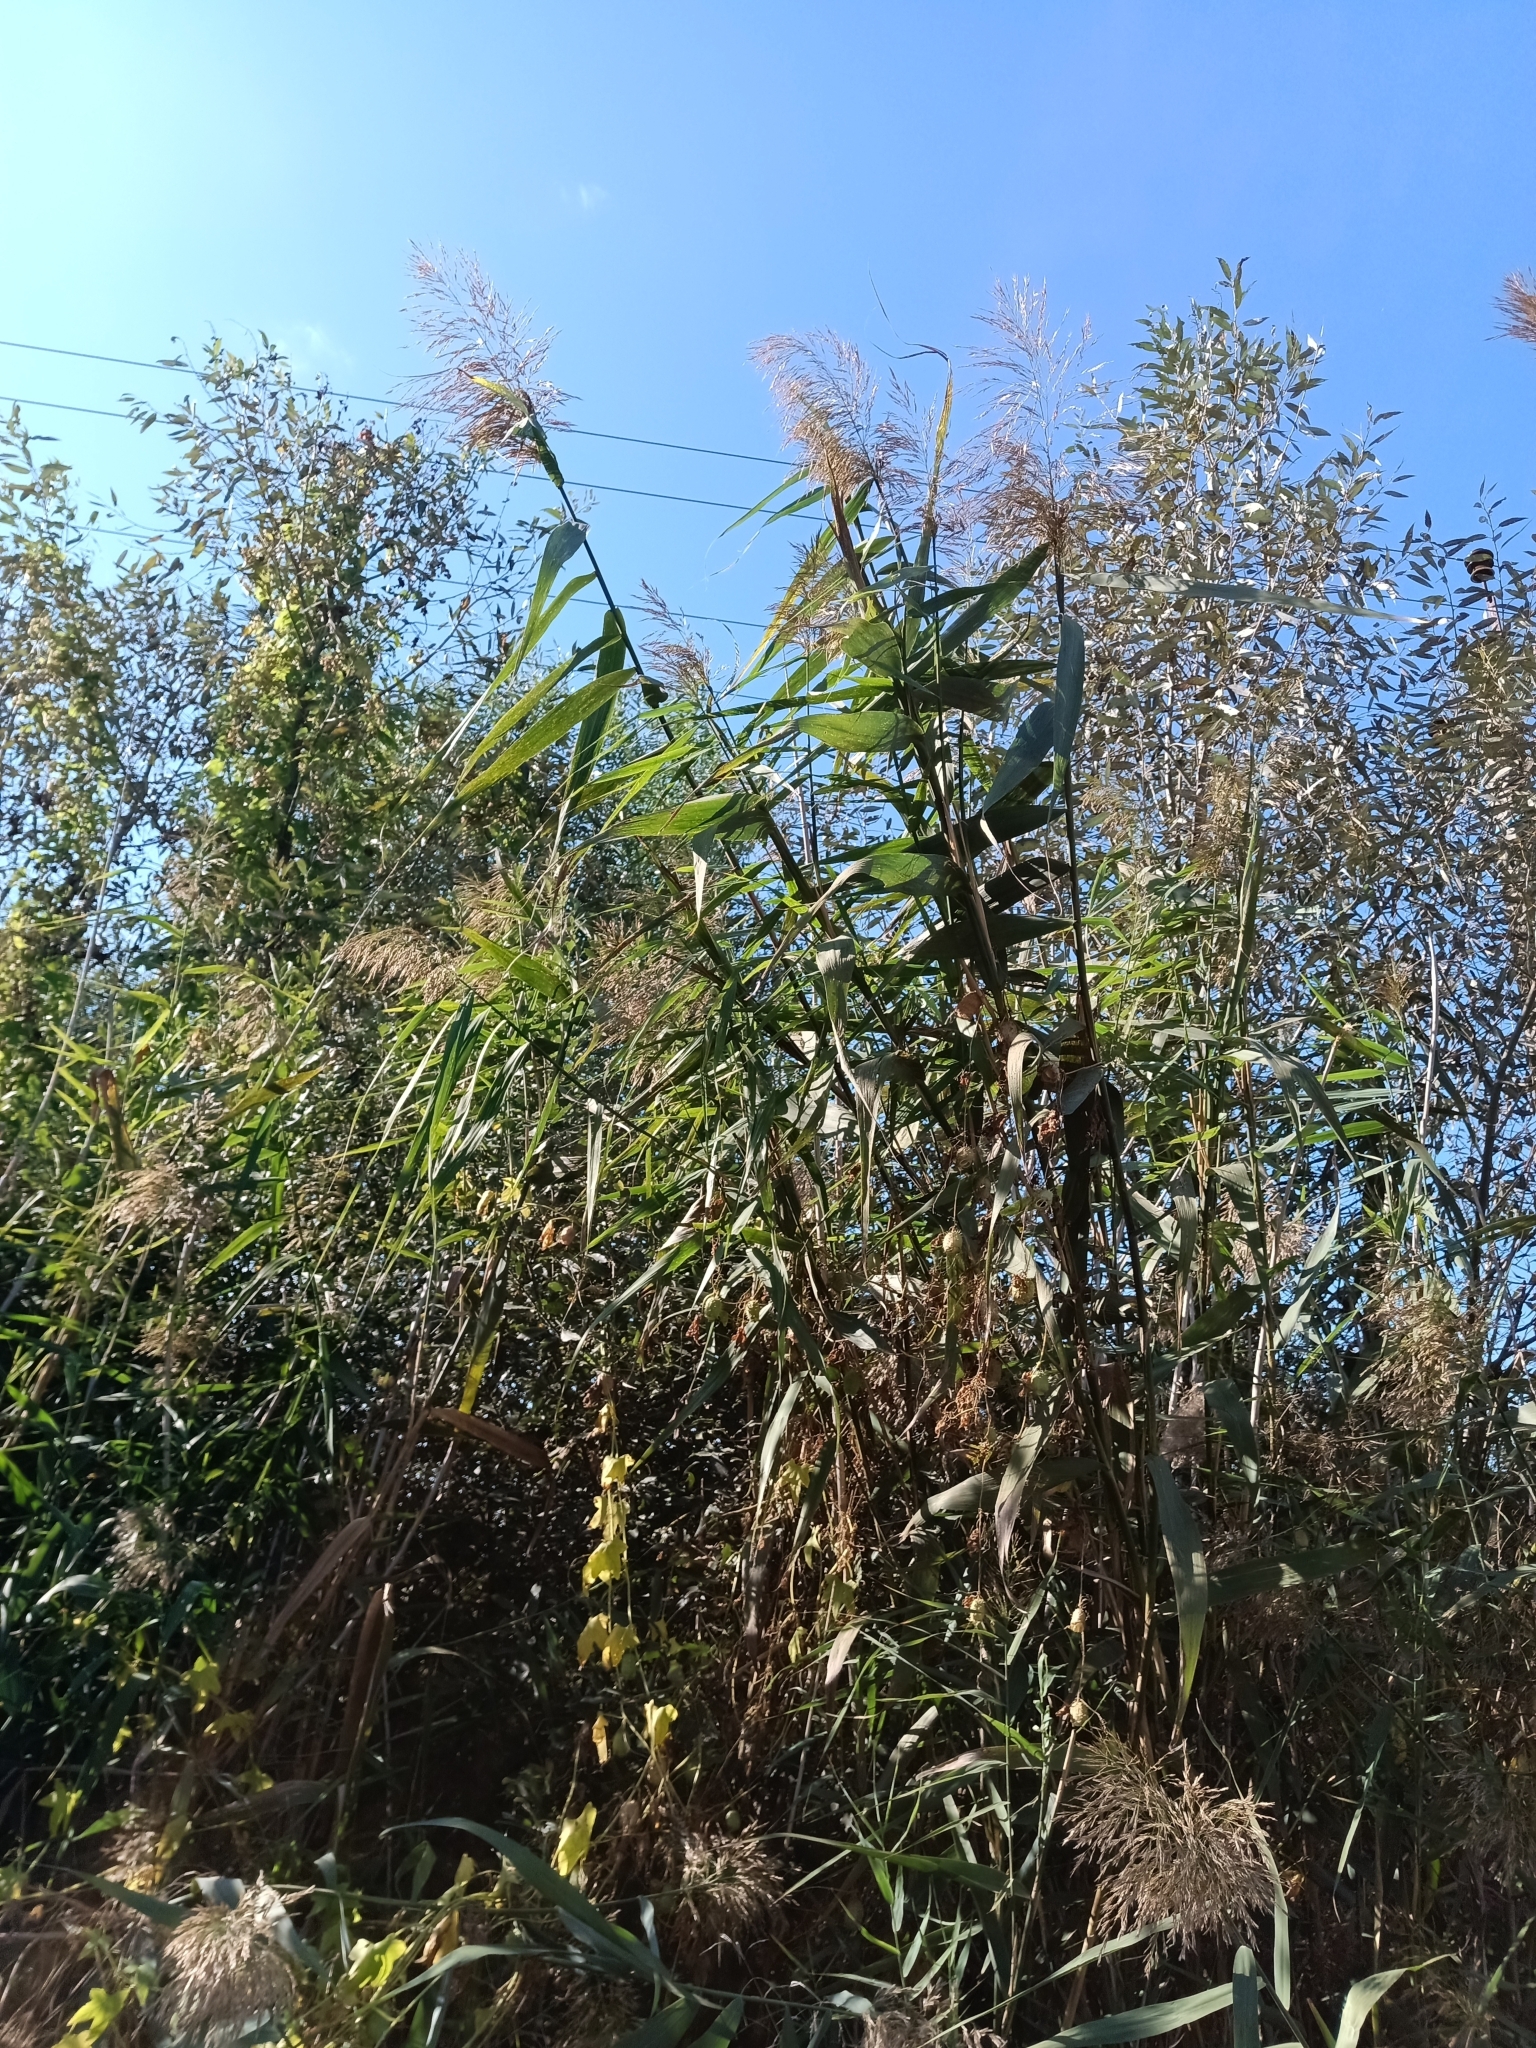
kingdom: Plantae
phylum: Tracheophyta
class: Liliopsida
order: Poales
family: Poaceae
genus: Phragmites
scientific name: Phragmites australis
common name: Common reed
